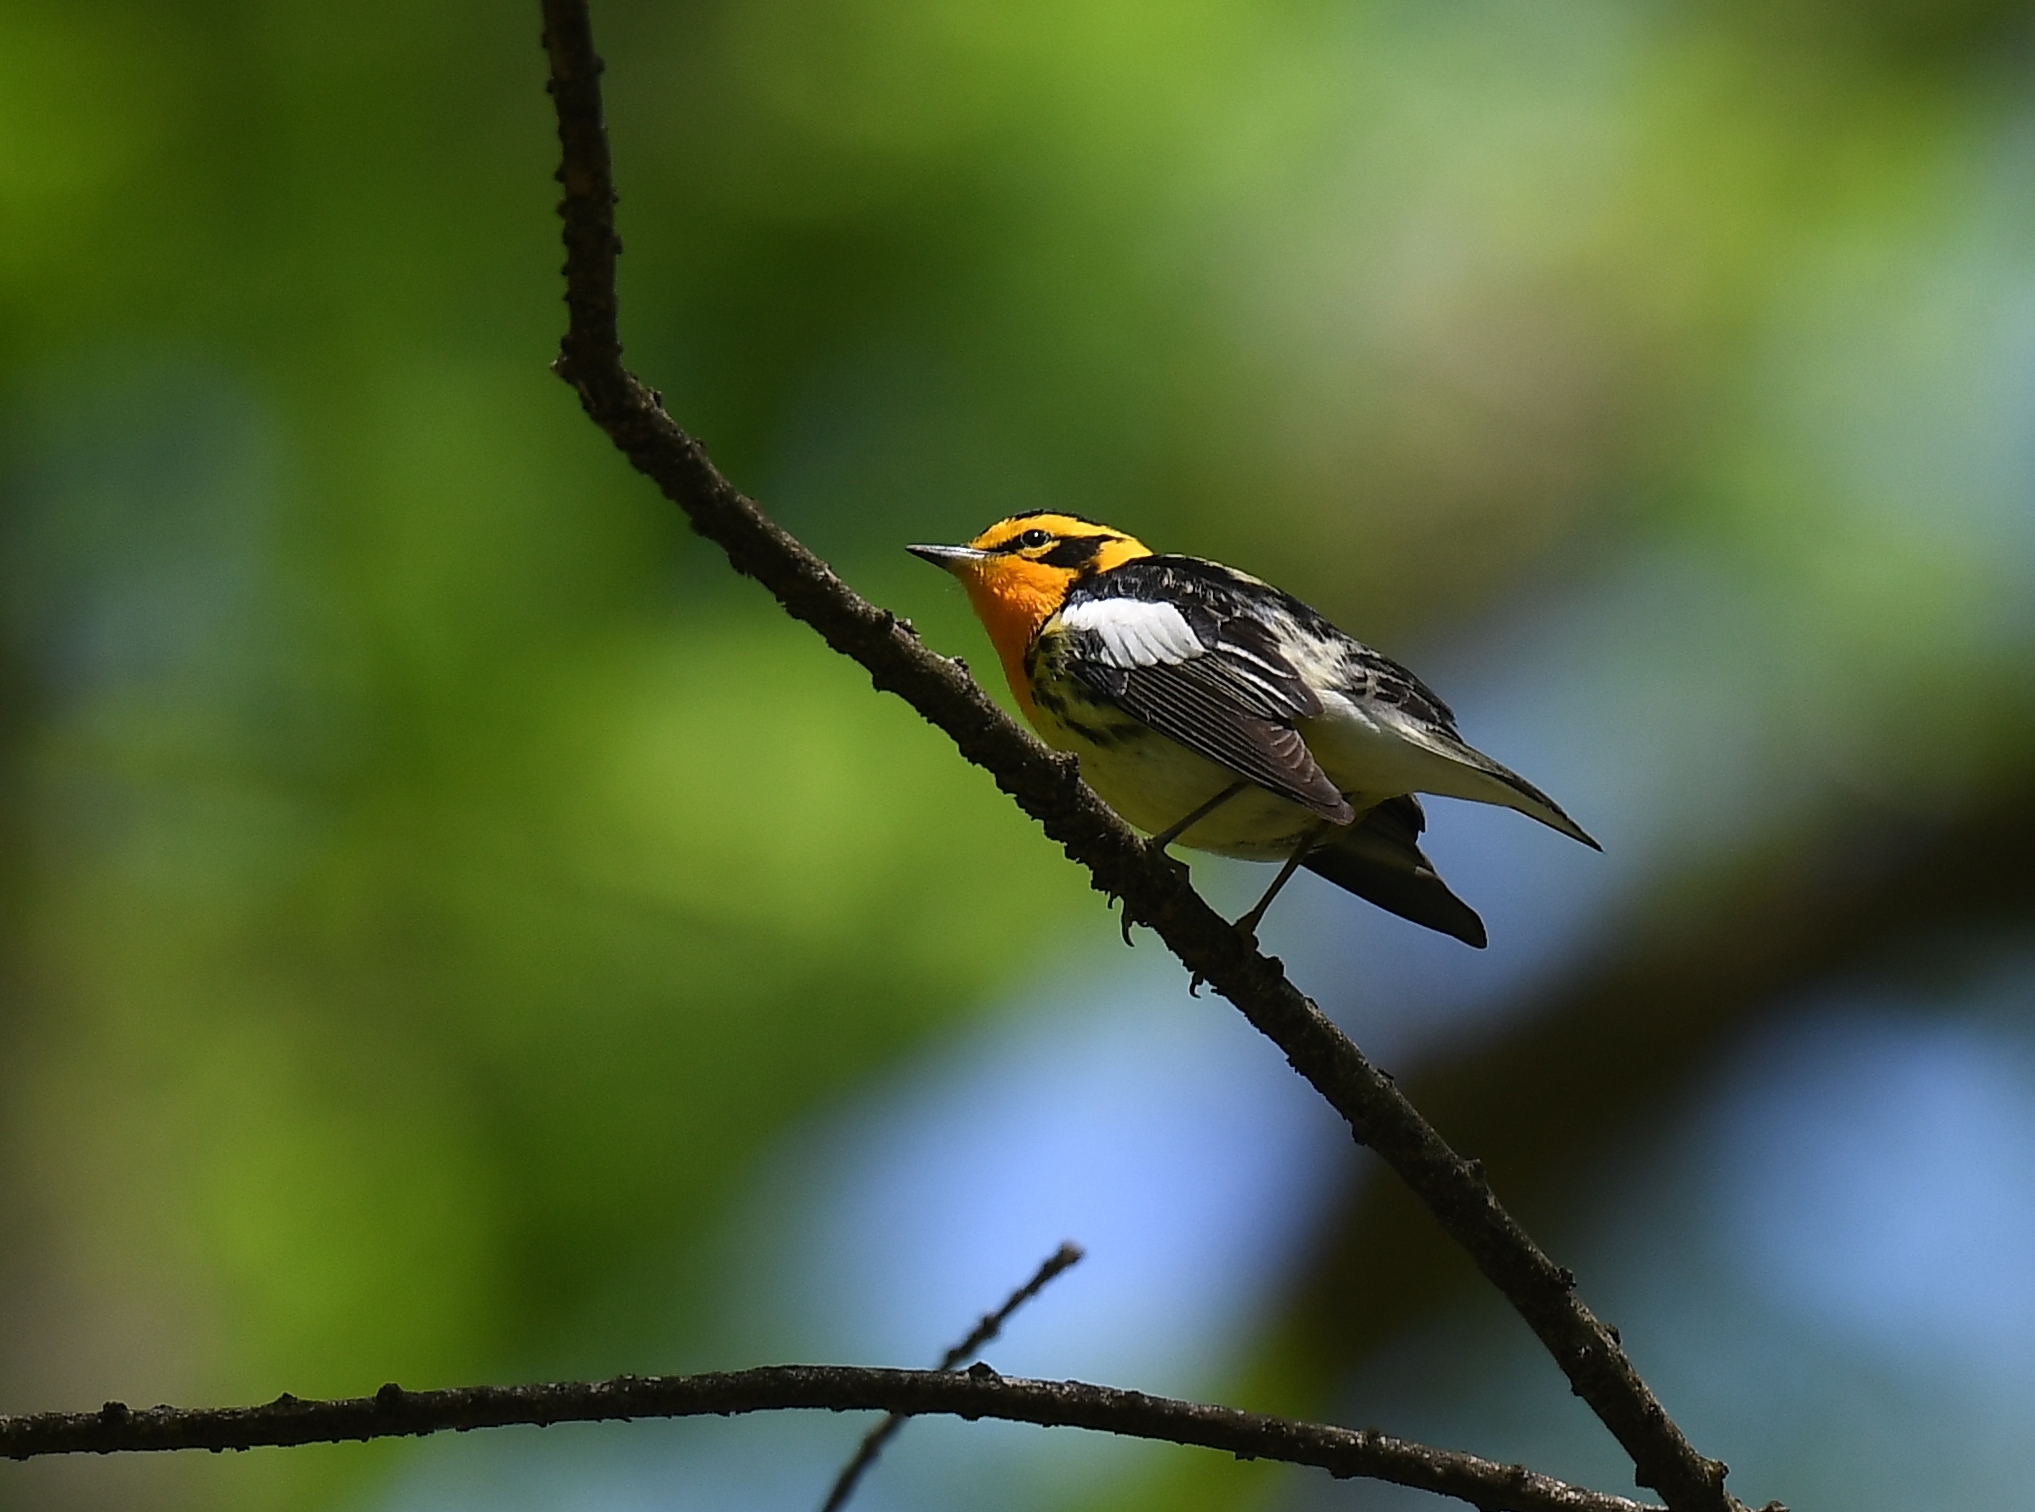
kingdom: Animalia
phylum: Chordata
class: Aves
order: Passeriformes
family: Parulidae
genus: Setophaga
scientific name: Setophaga fusca
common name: Blackburnian warbler
